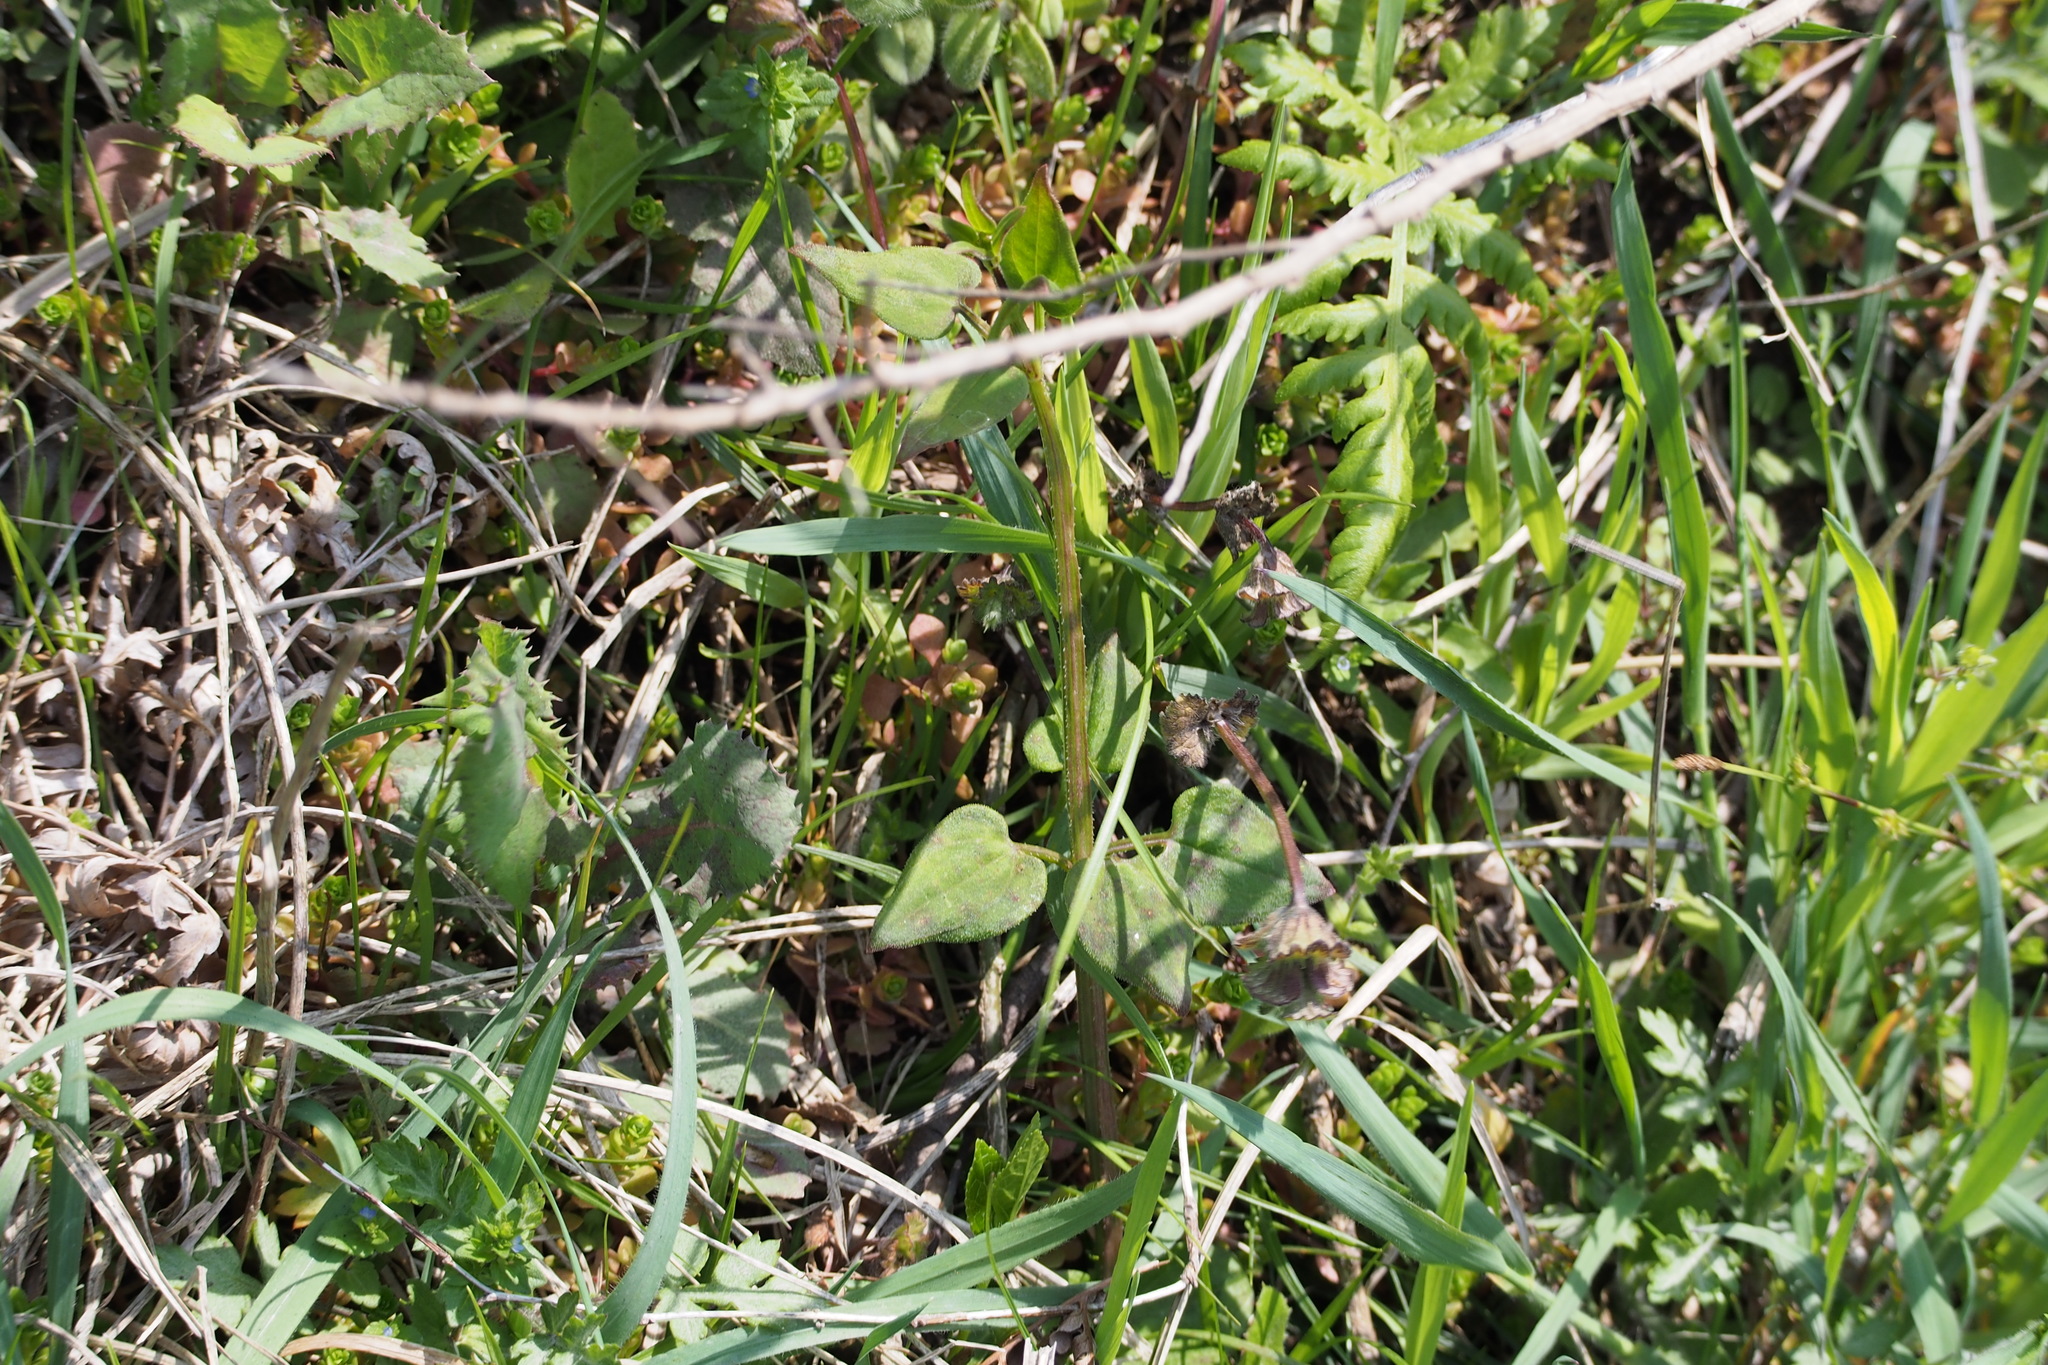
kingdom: Plantae
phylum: Tracheophyta
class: Magnoliopsida
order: Gentianales
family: Rubiaceae
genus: Rubia
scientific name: Rubia argyi
